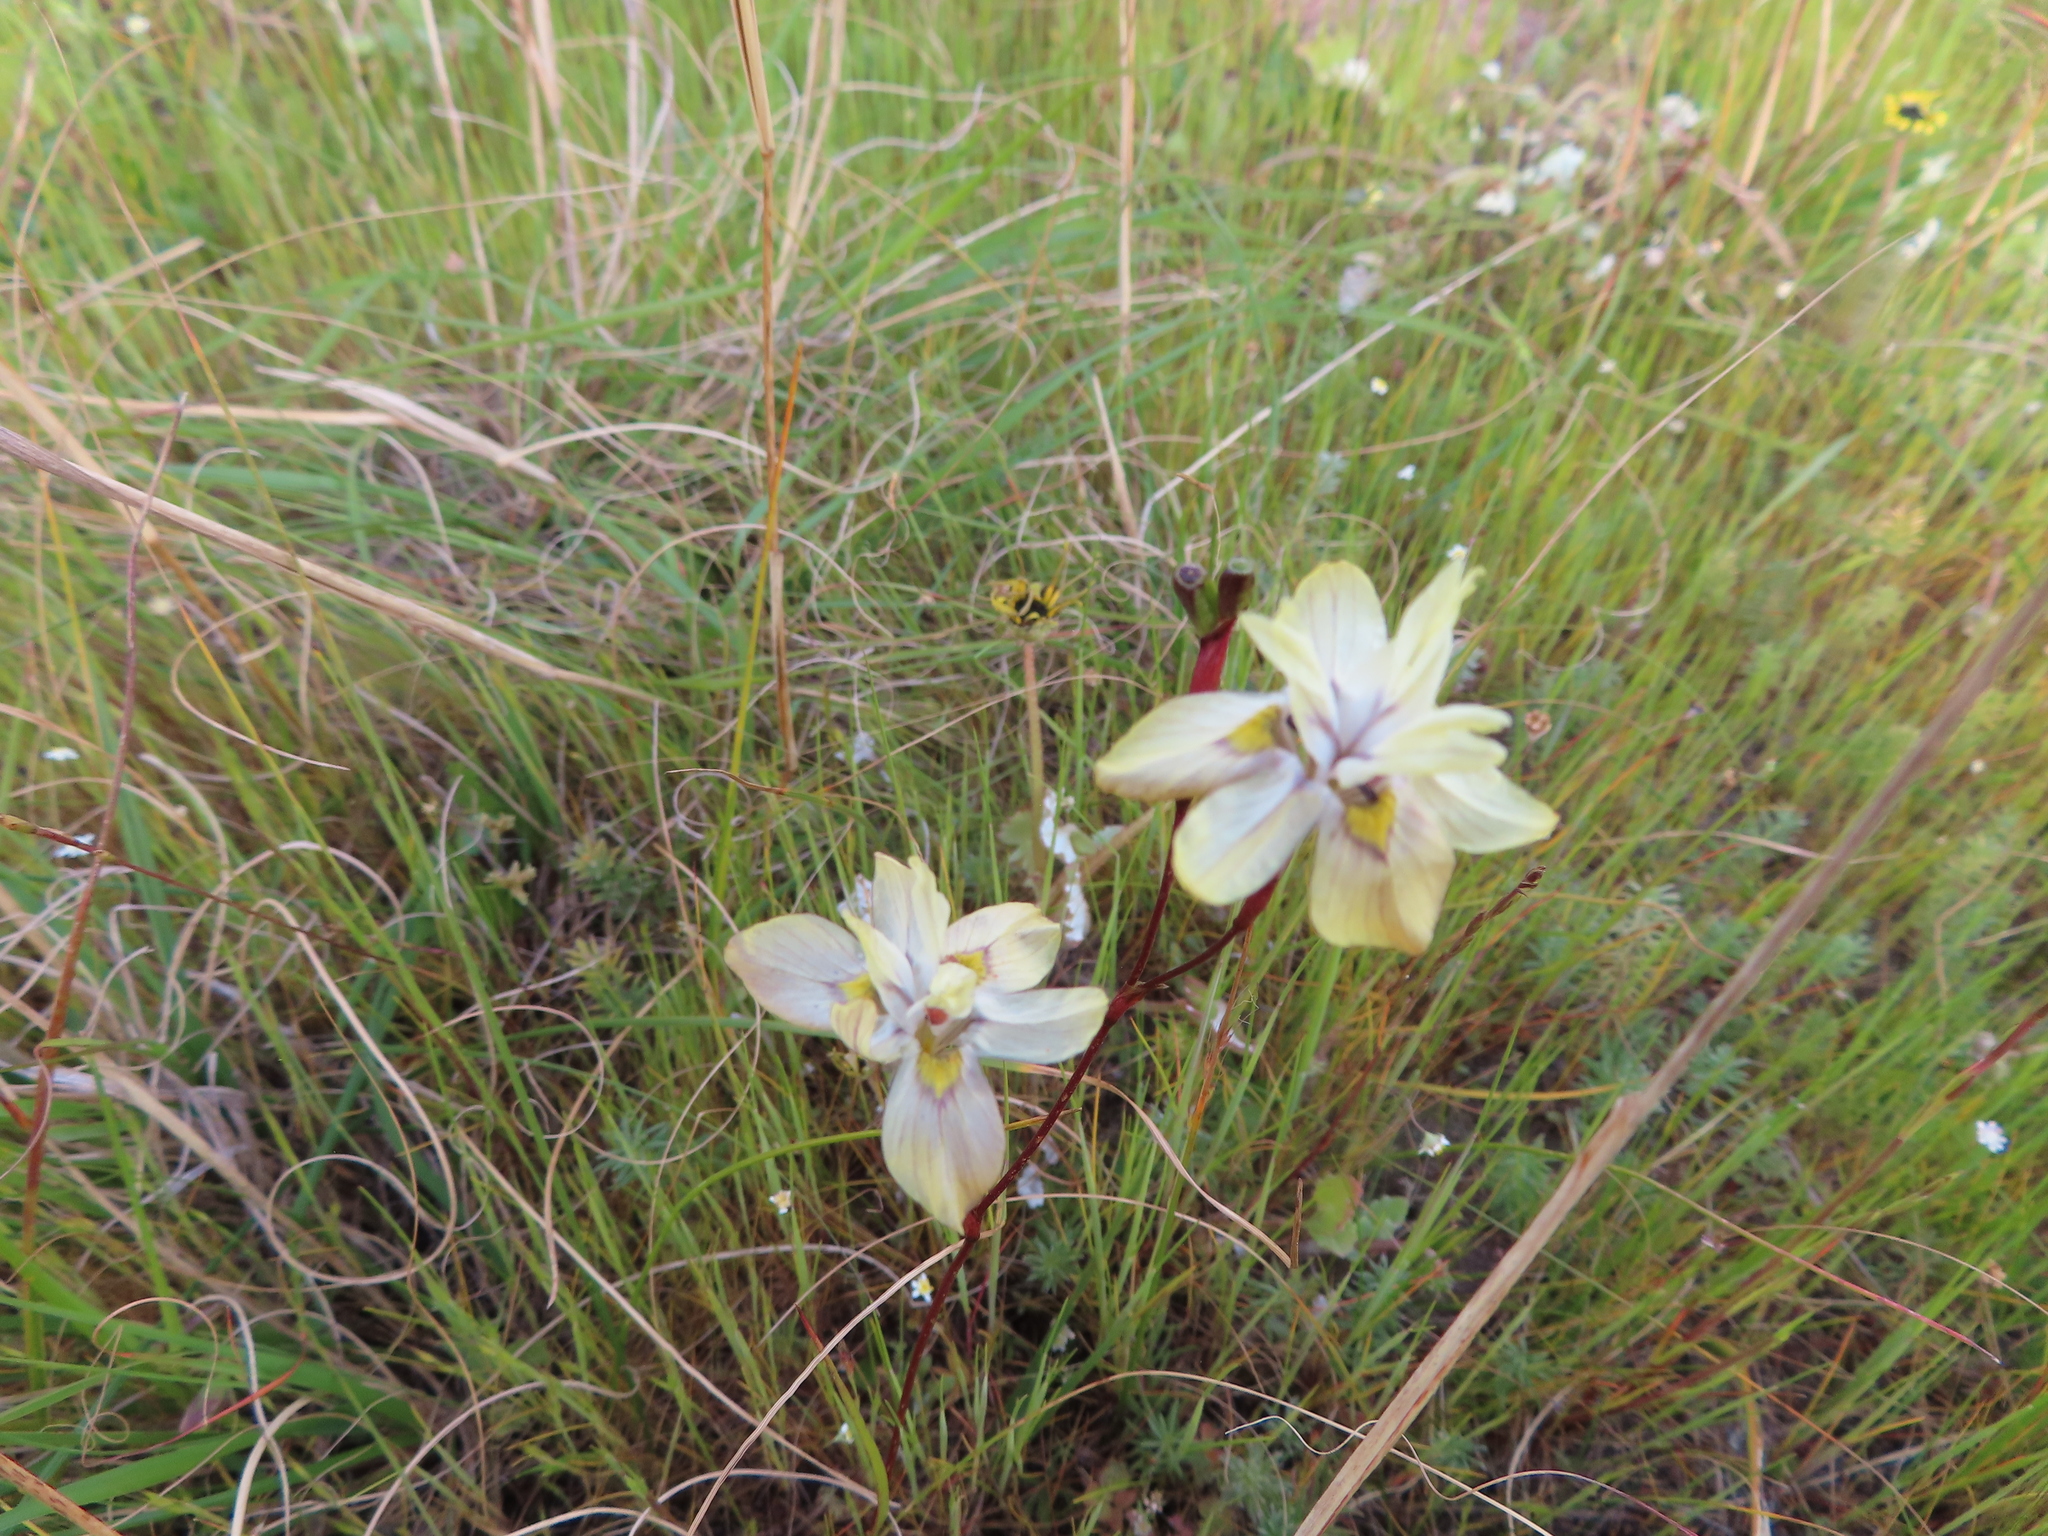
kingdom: Plantae
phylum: Tracheophyta
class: Liliopsida
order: Asparagales
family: Iridaceae
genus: Moraea
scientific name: Moraea gawleri
